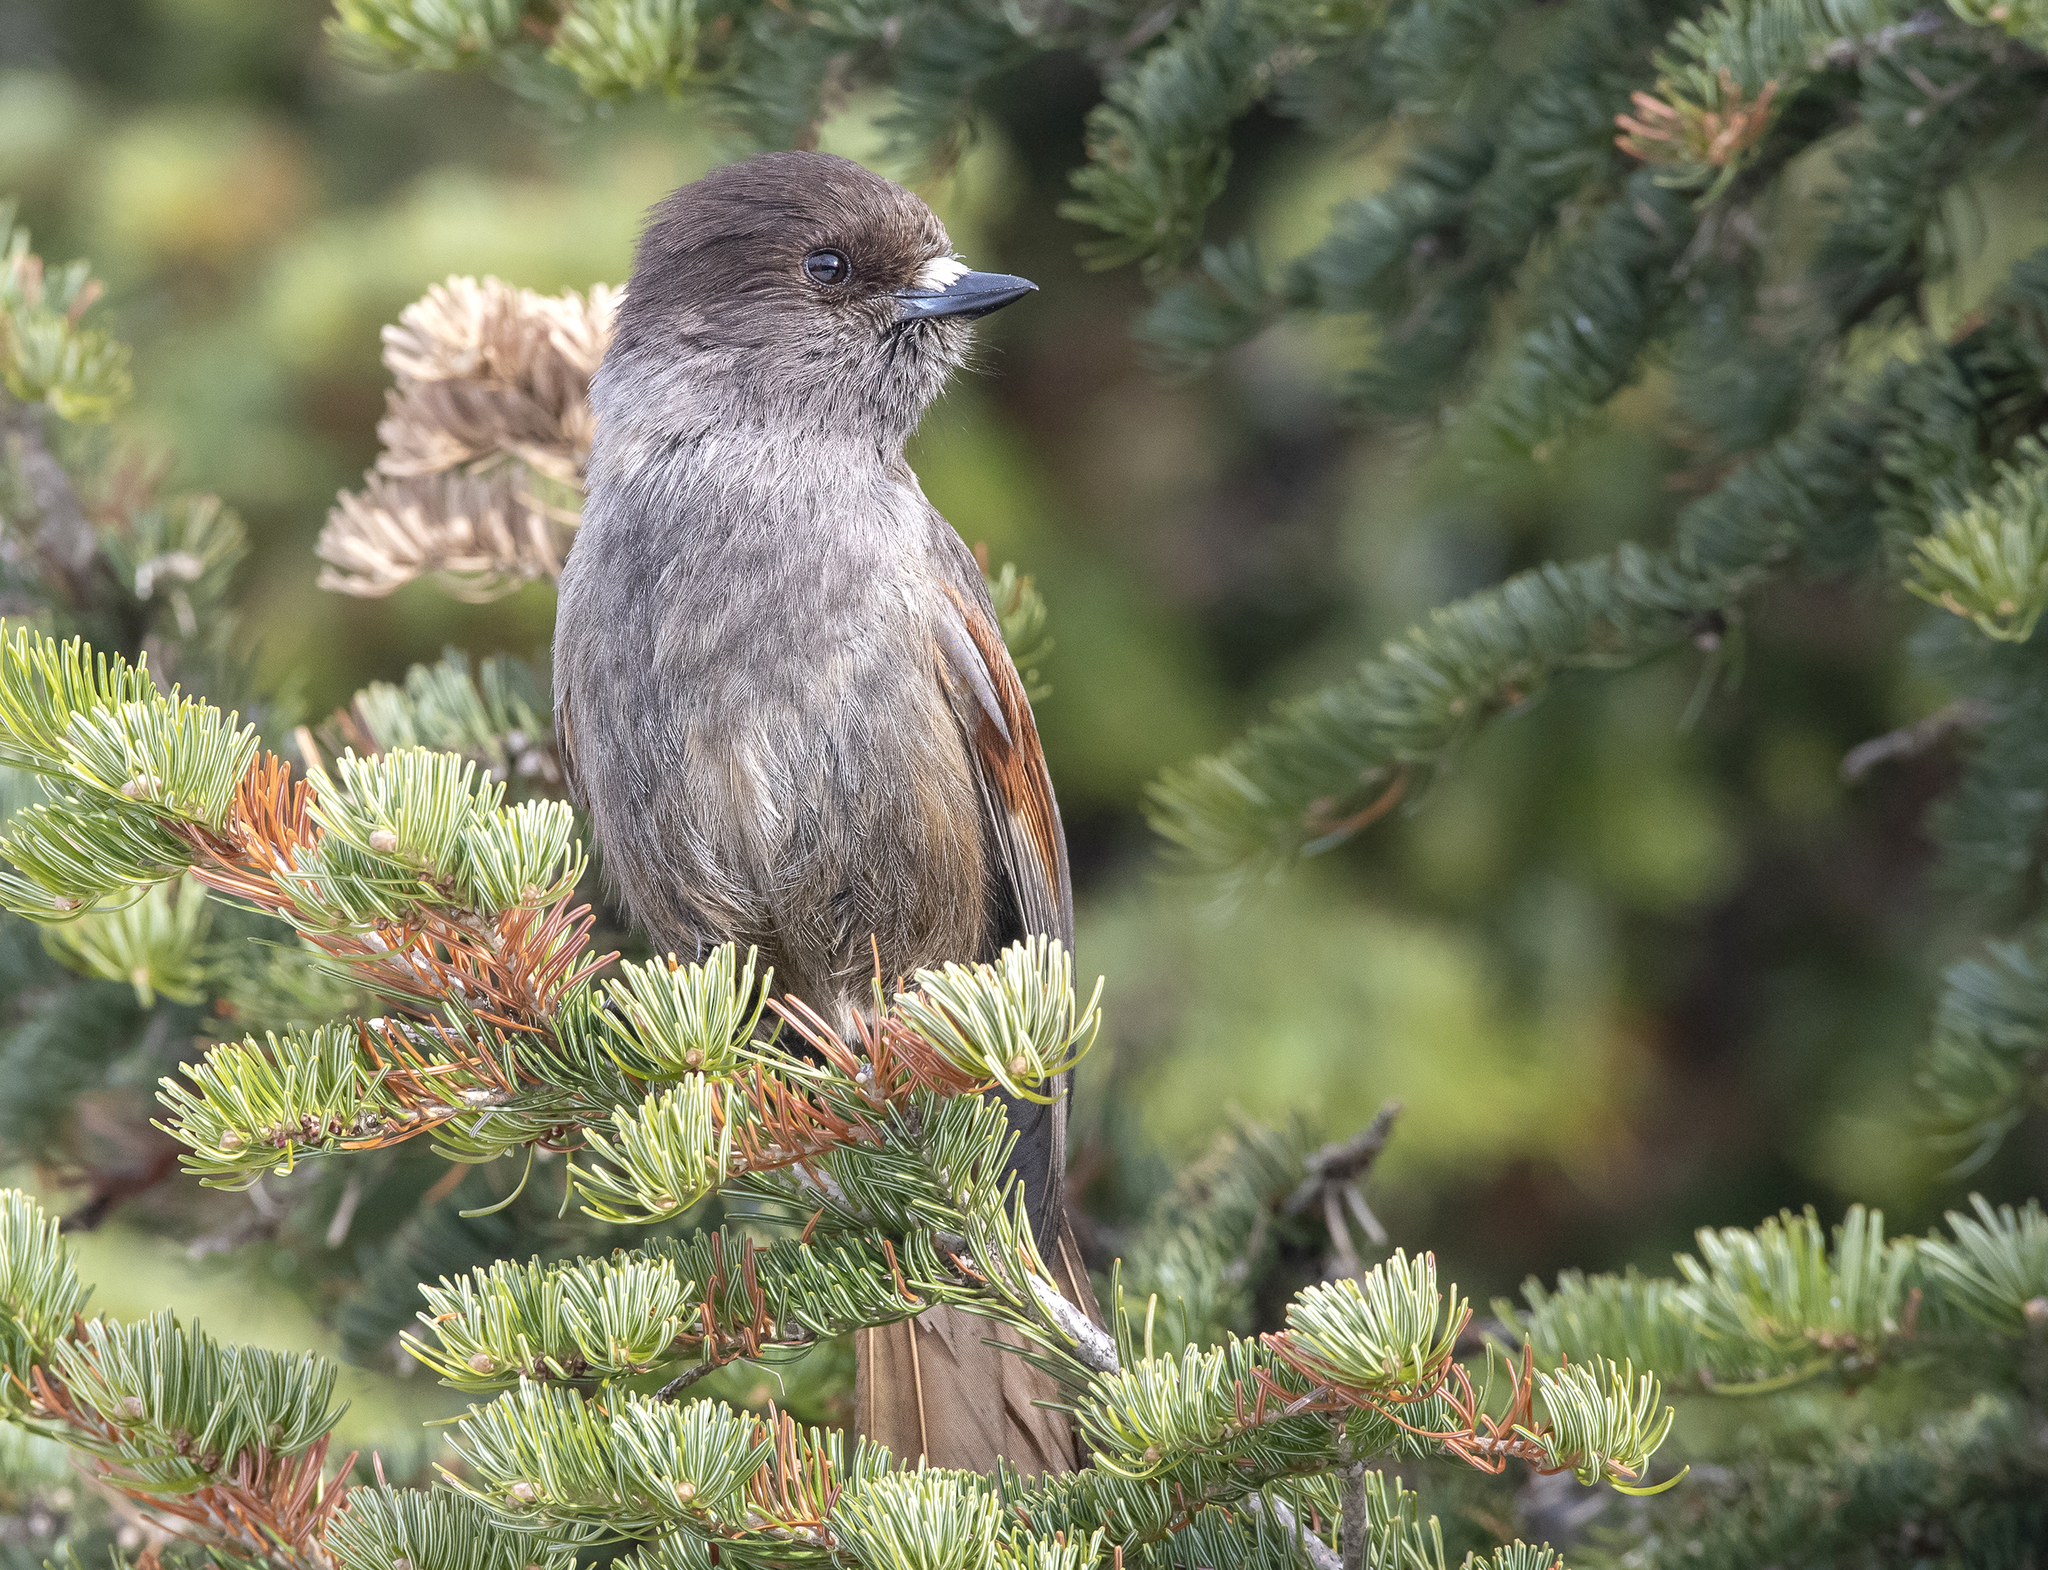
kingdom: Animalia
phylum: Chordata
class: Aves
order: Passeriformes
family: Corvidae
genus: Perisoreus
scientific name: Perisoreus infaustus
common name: Siberian jay
